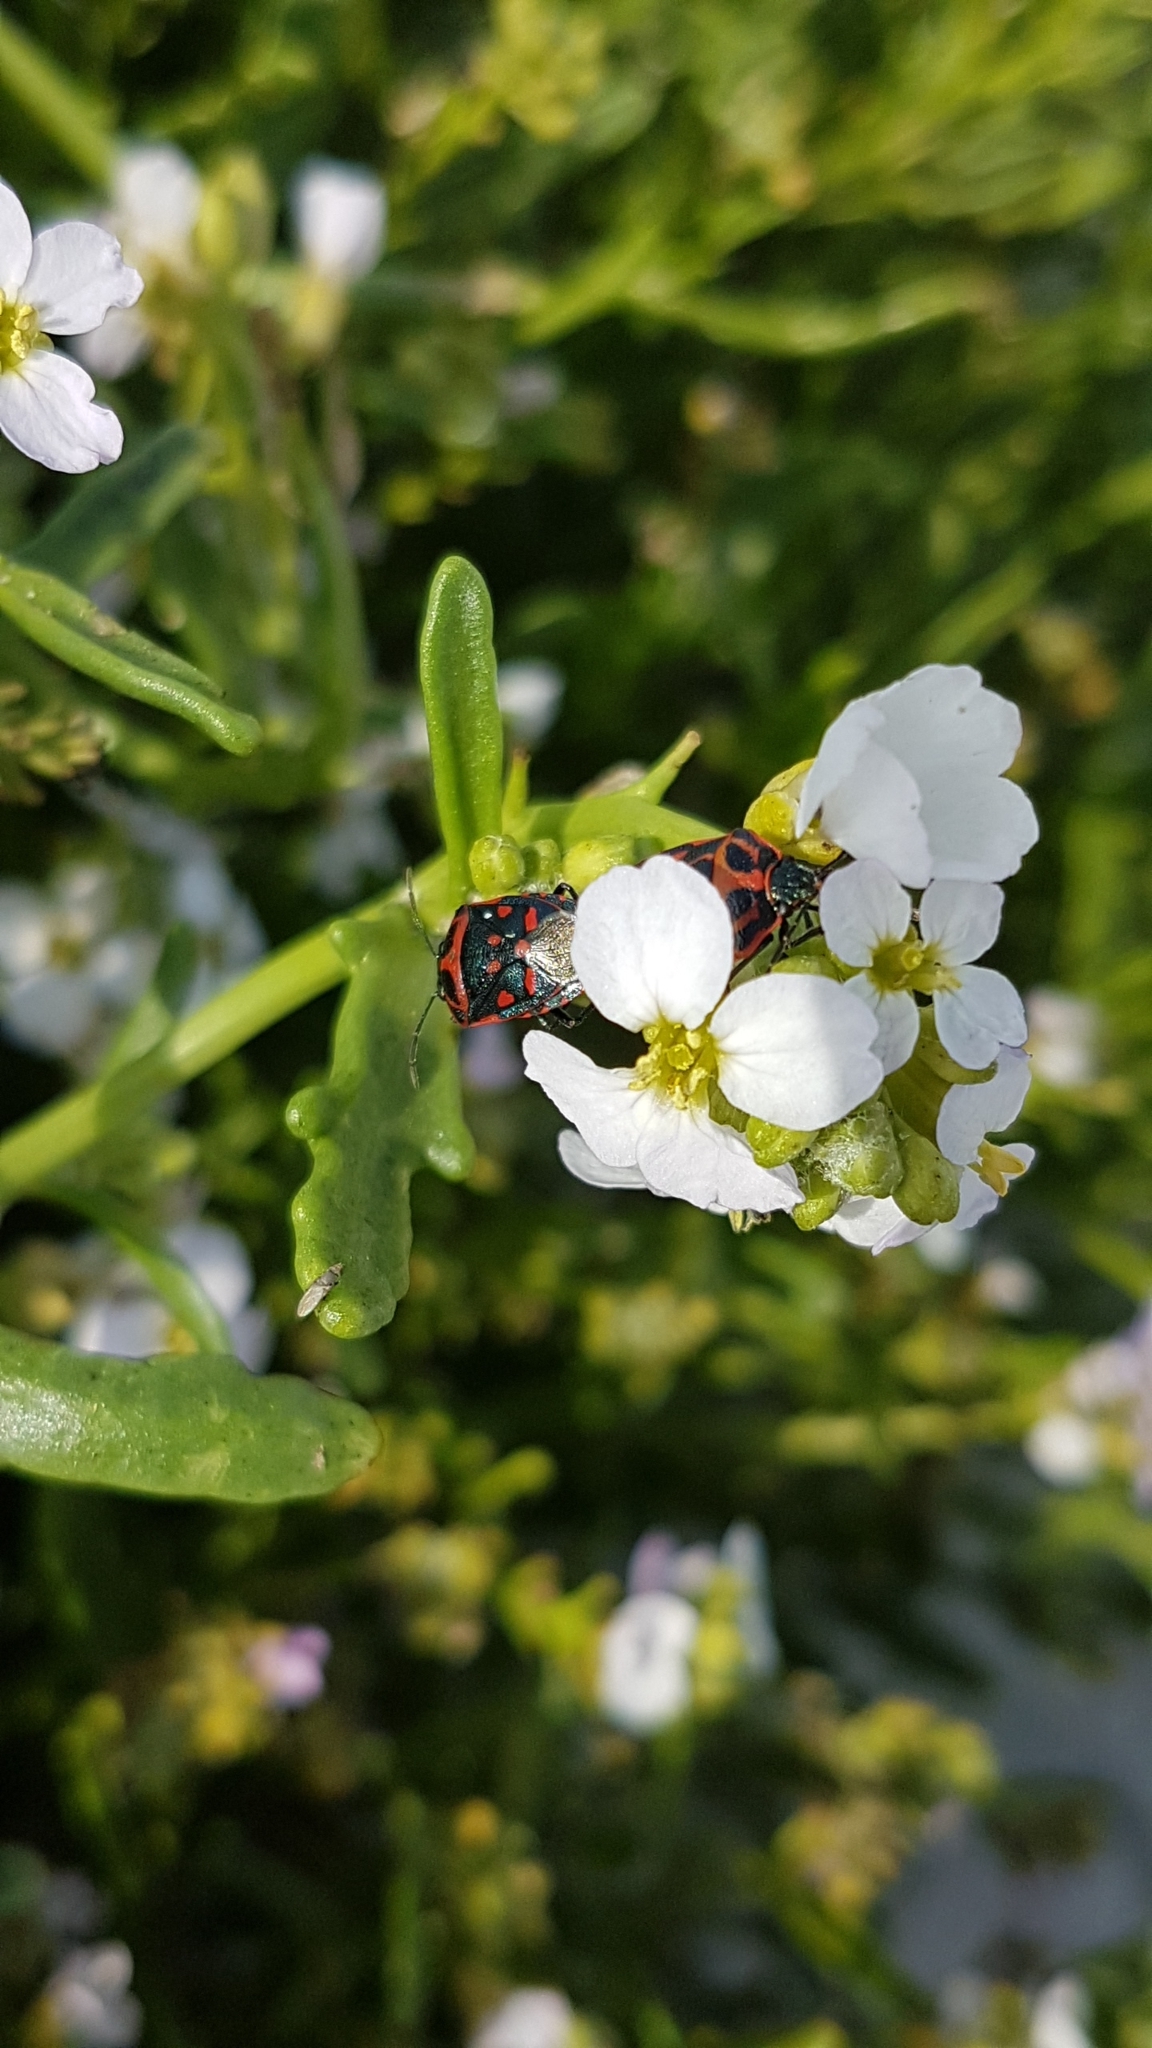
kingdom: Plantae
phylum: Tracheophyta
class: Magnoliopsida
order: Brassicales
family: Brassicaceae
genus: Cakile
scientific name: Cakile maritima
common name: Sea rocket
